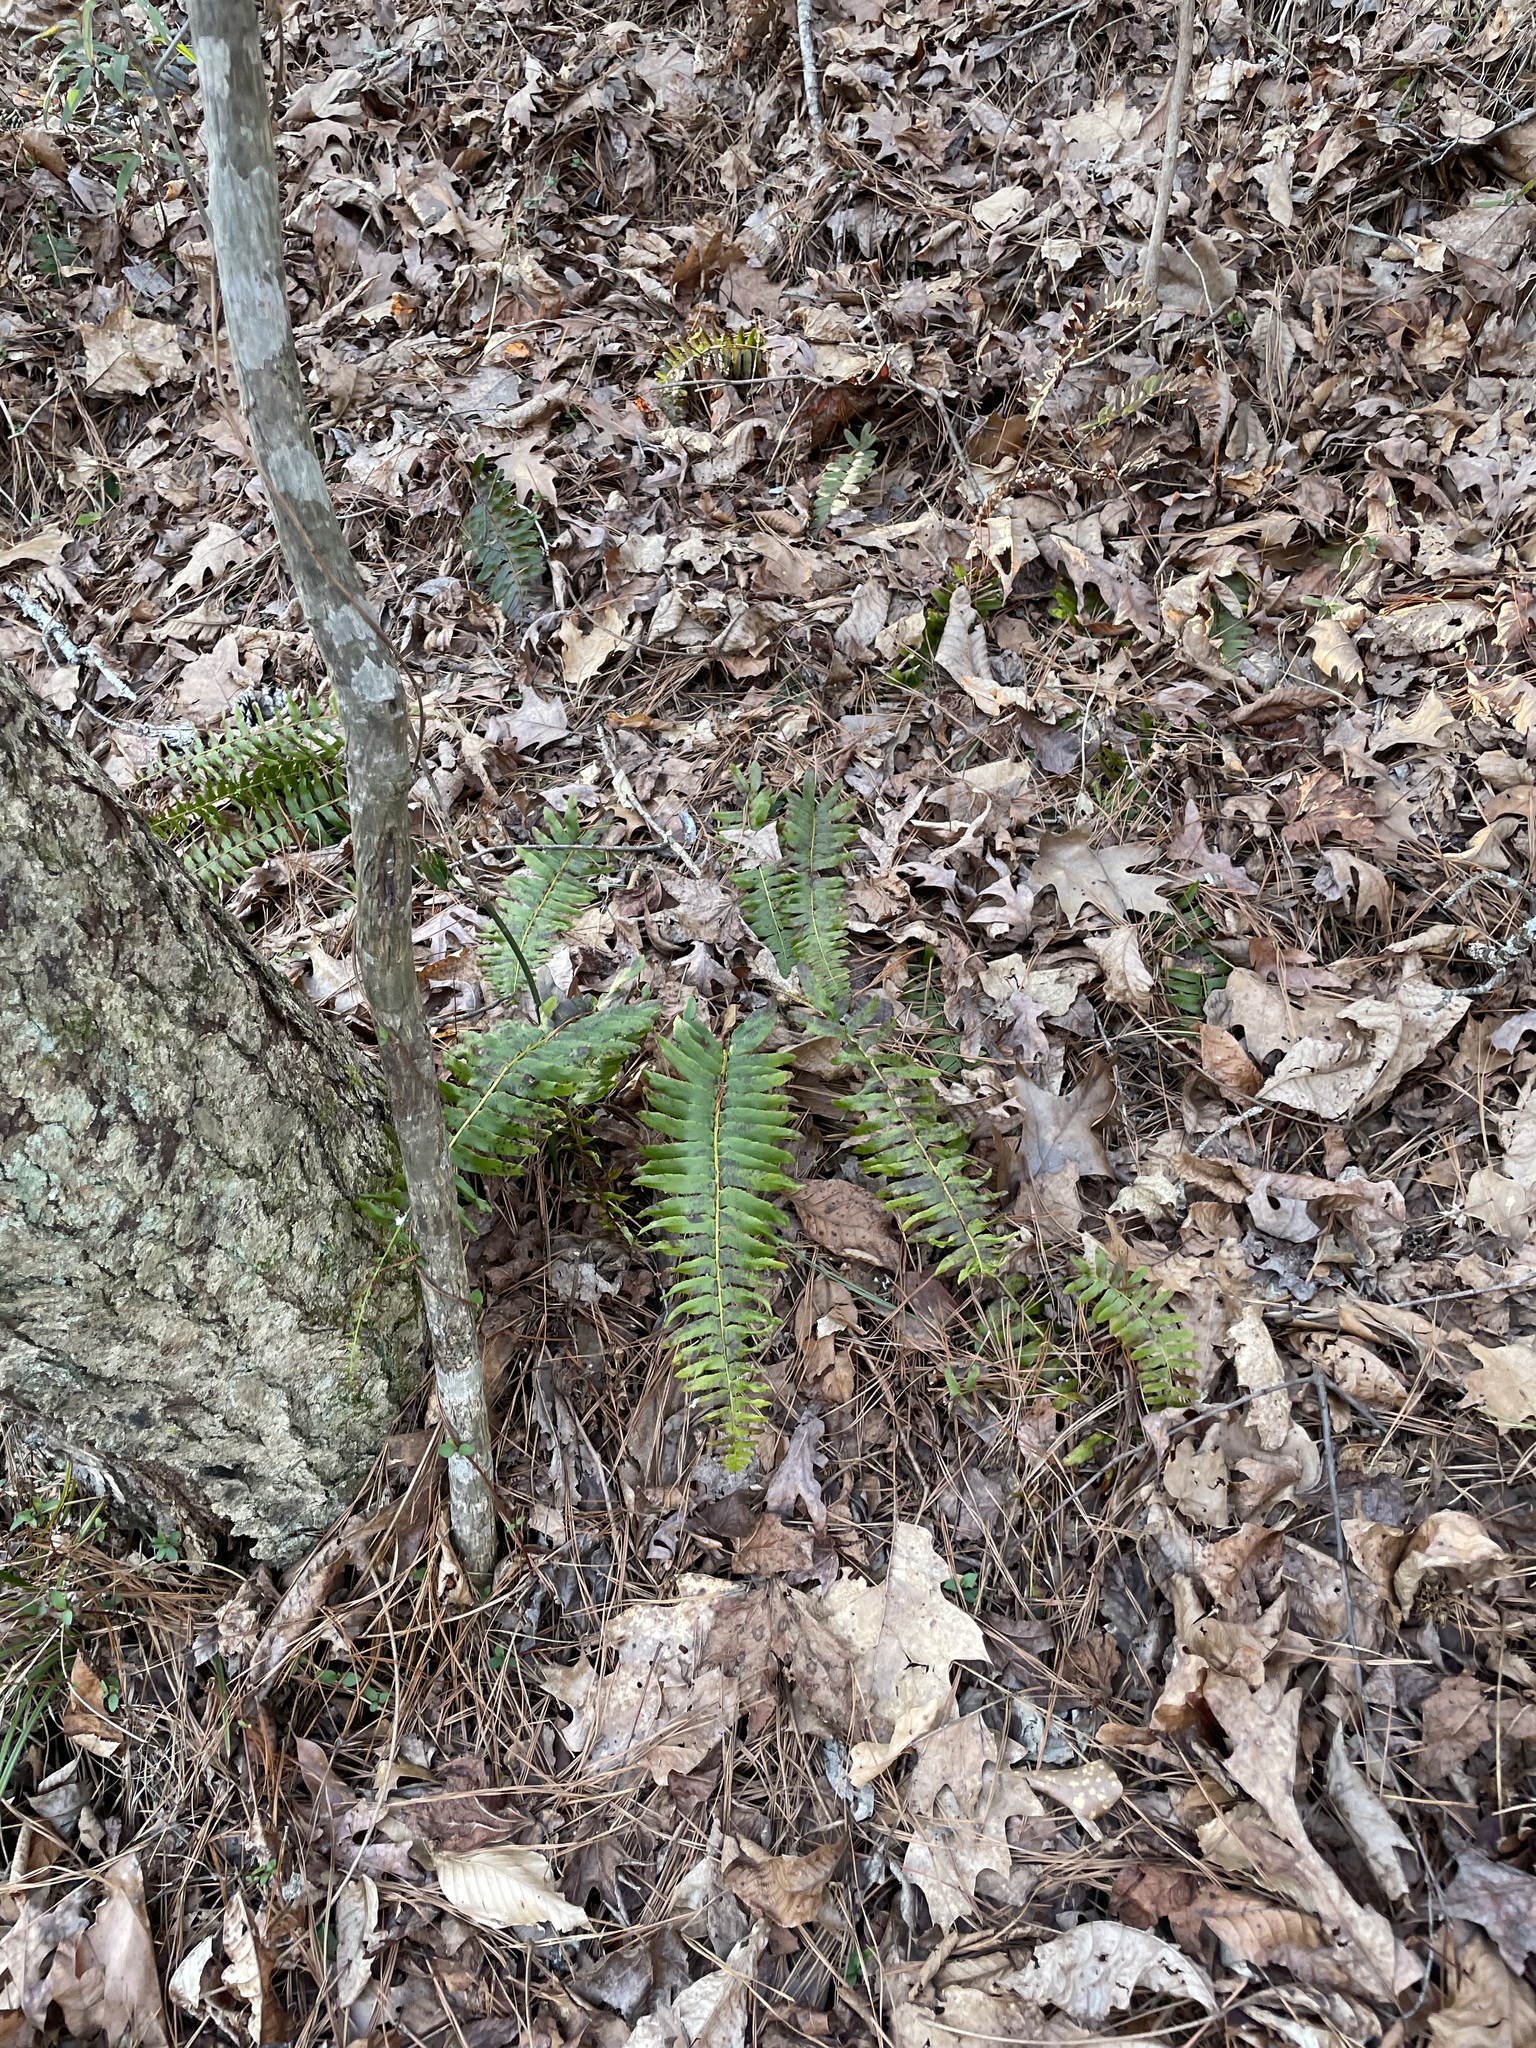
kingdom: Plantae
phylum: Tracheophyta
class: Polypodiopsida
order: Polypodiales
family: Dryopteridaceae
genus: Polystichum
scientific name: Polystichum acrostichoides
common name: Christmas fern
